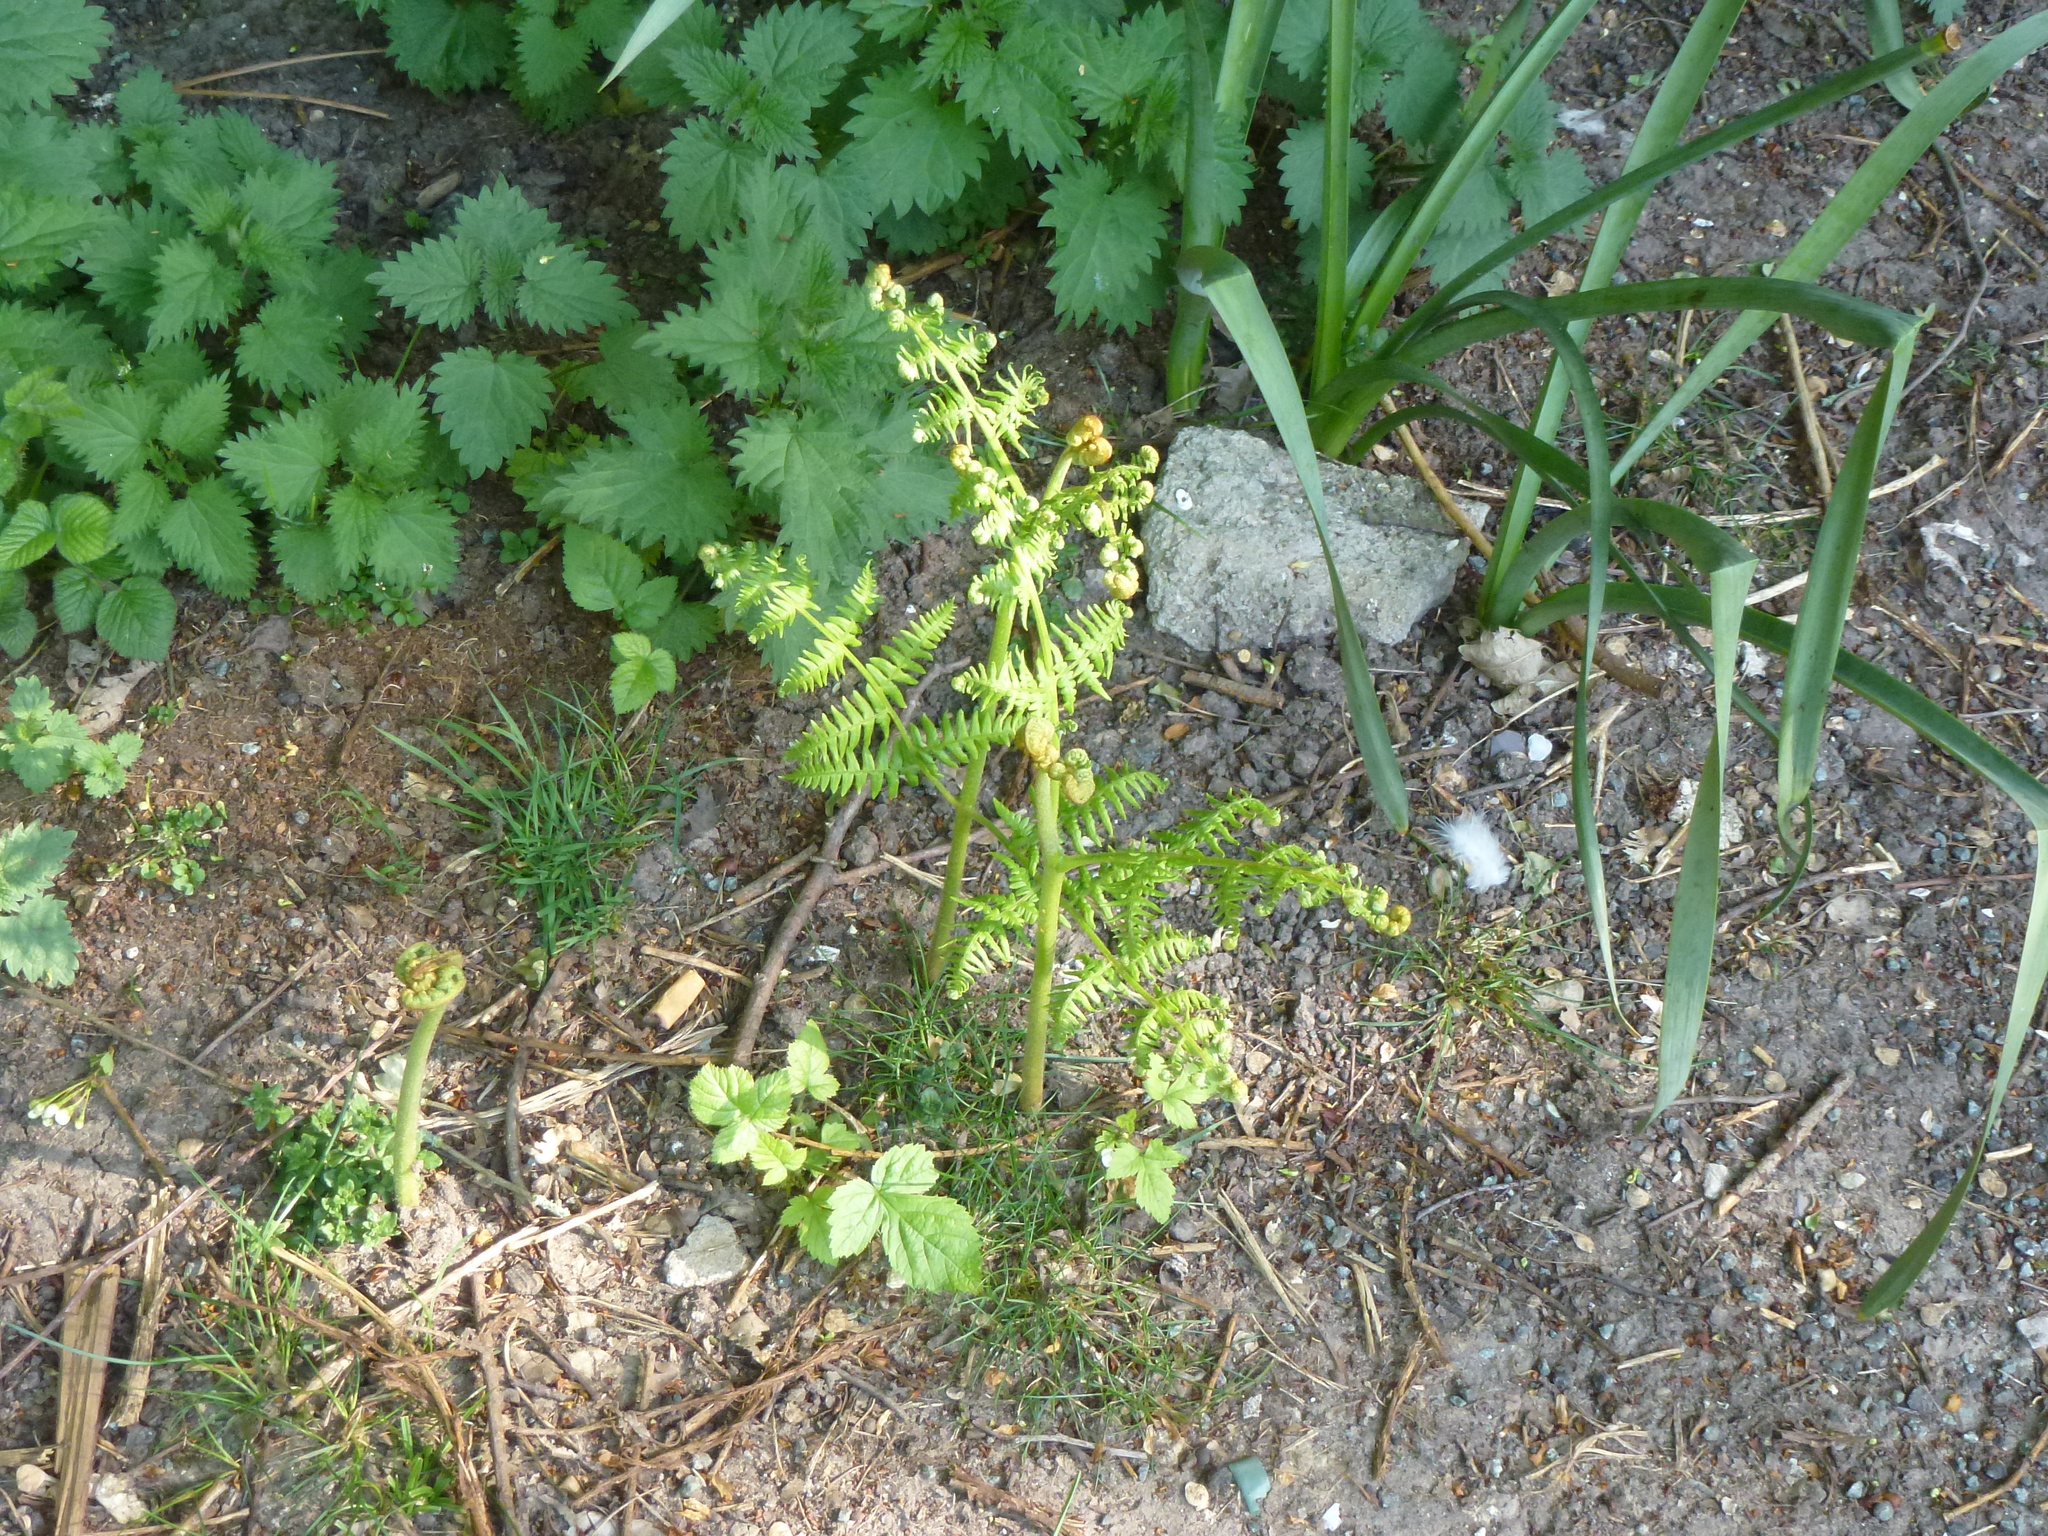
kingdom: Plantae
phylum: Tracheophyta
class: Polypodiopsida
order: Polypodiales
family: Dennstaedtiaceae
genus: Pteridium
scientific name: Pteridium aquilinum
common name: Bracken
